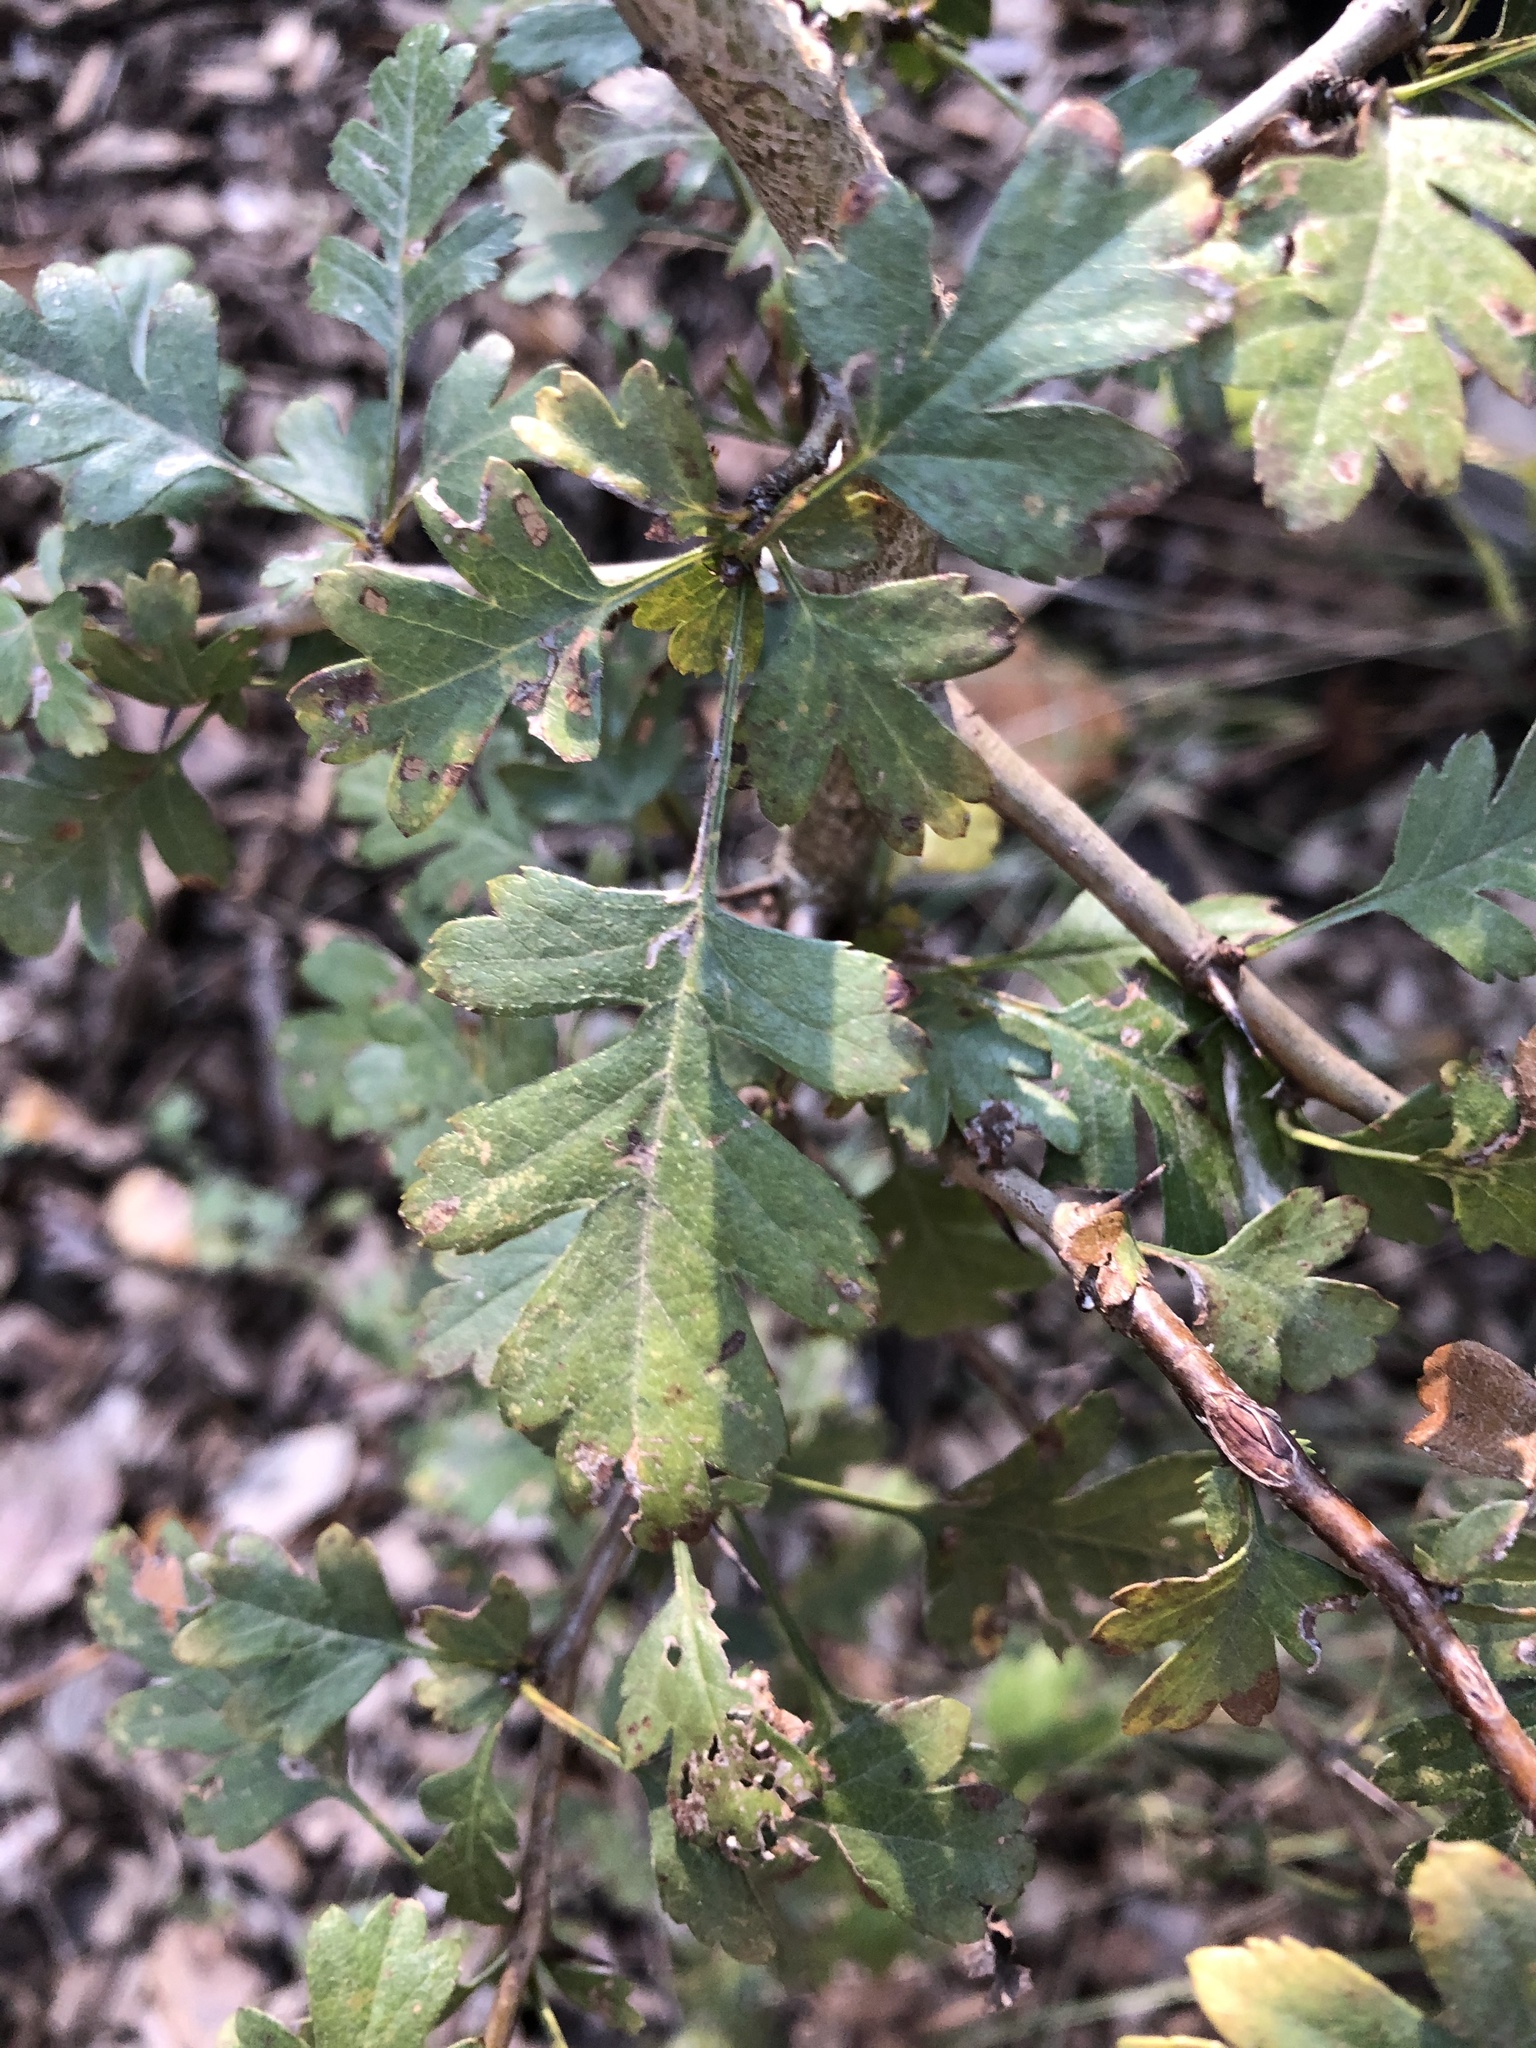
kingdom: Plantae
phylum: Tracheophyta
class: Magnoliopsida
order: Rosales
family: Rosaceae
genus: Crataegus
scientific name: Crataegus monogyna
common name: Hawthorn
